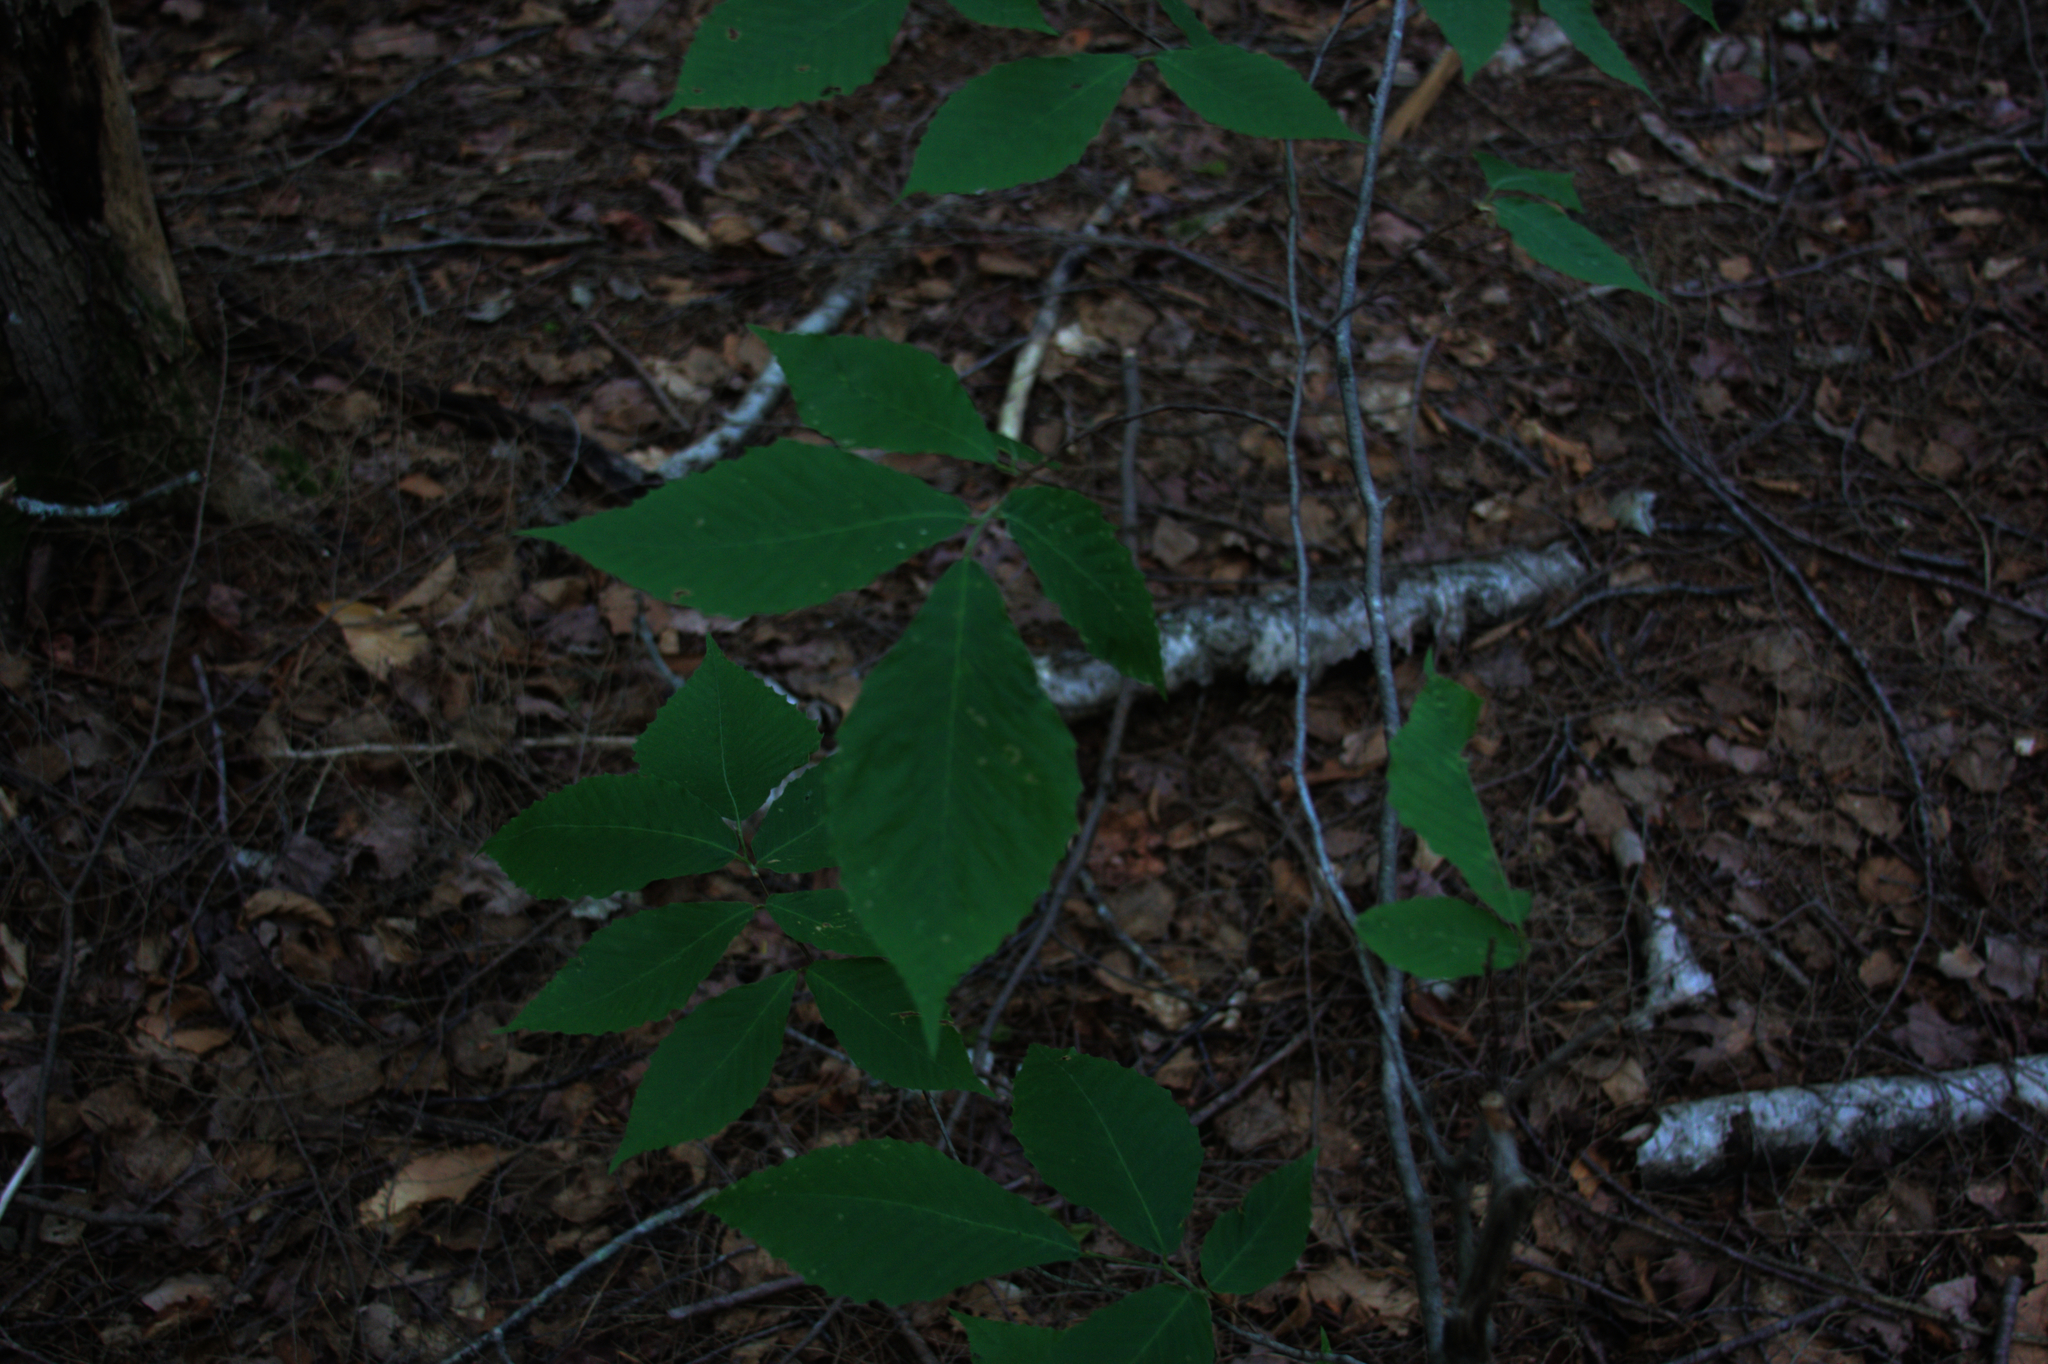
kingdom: Plantae
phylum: Tracheophyta
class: Magnoliopsida
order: Fagales
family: Fagaceae
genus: Fagus
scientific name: Fagus grandifolia
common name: American beech
